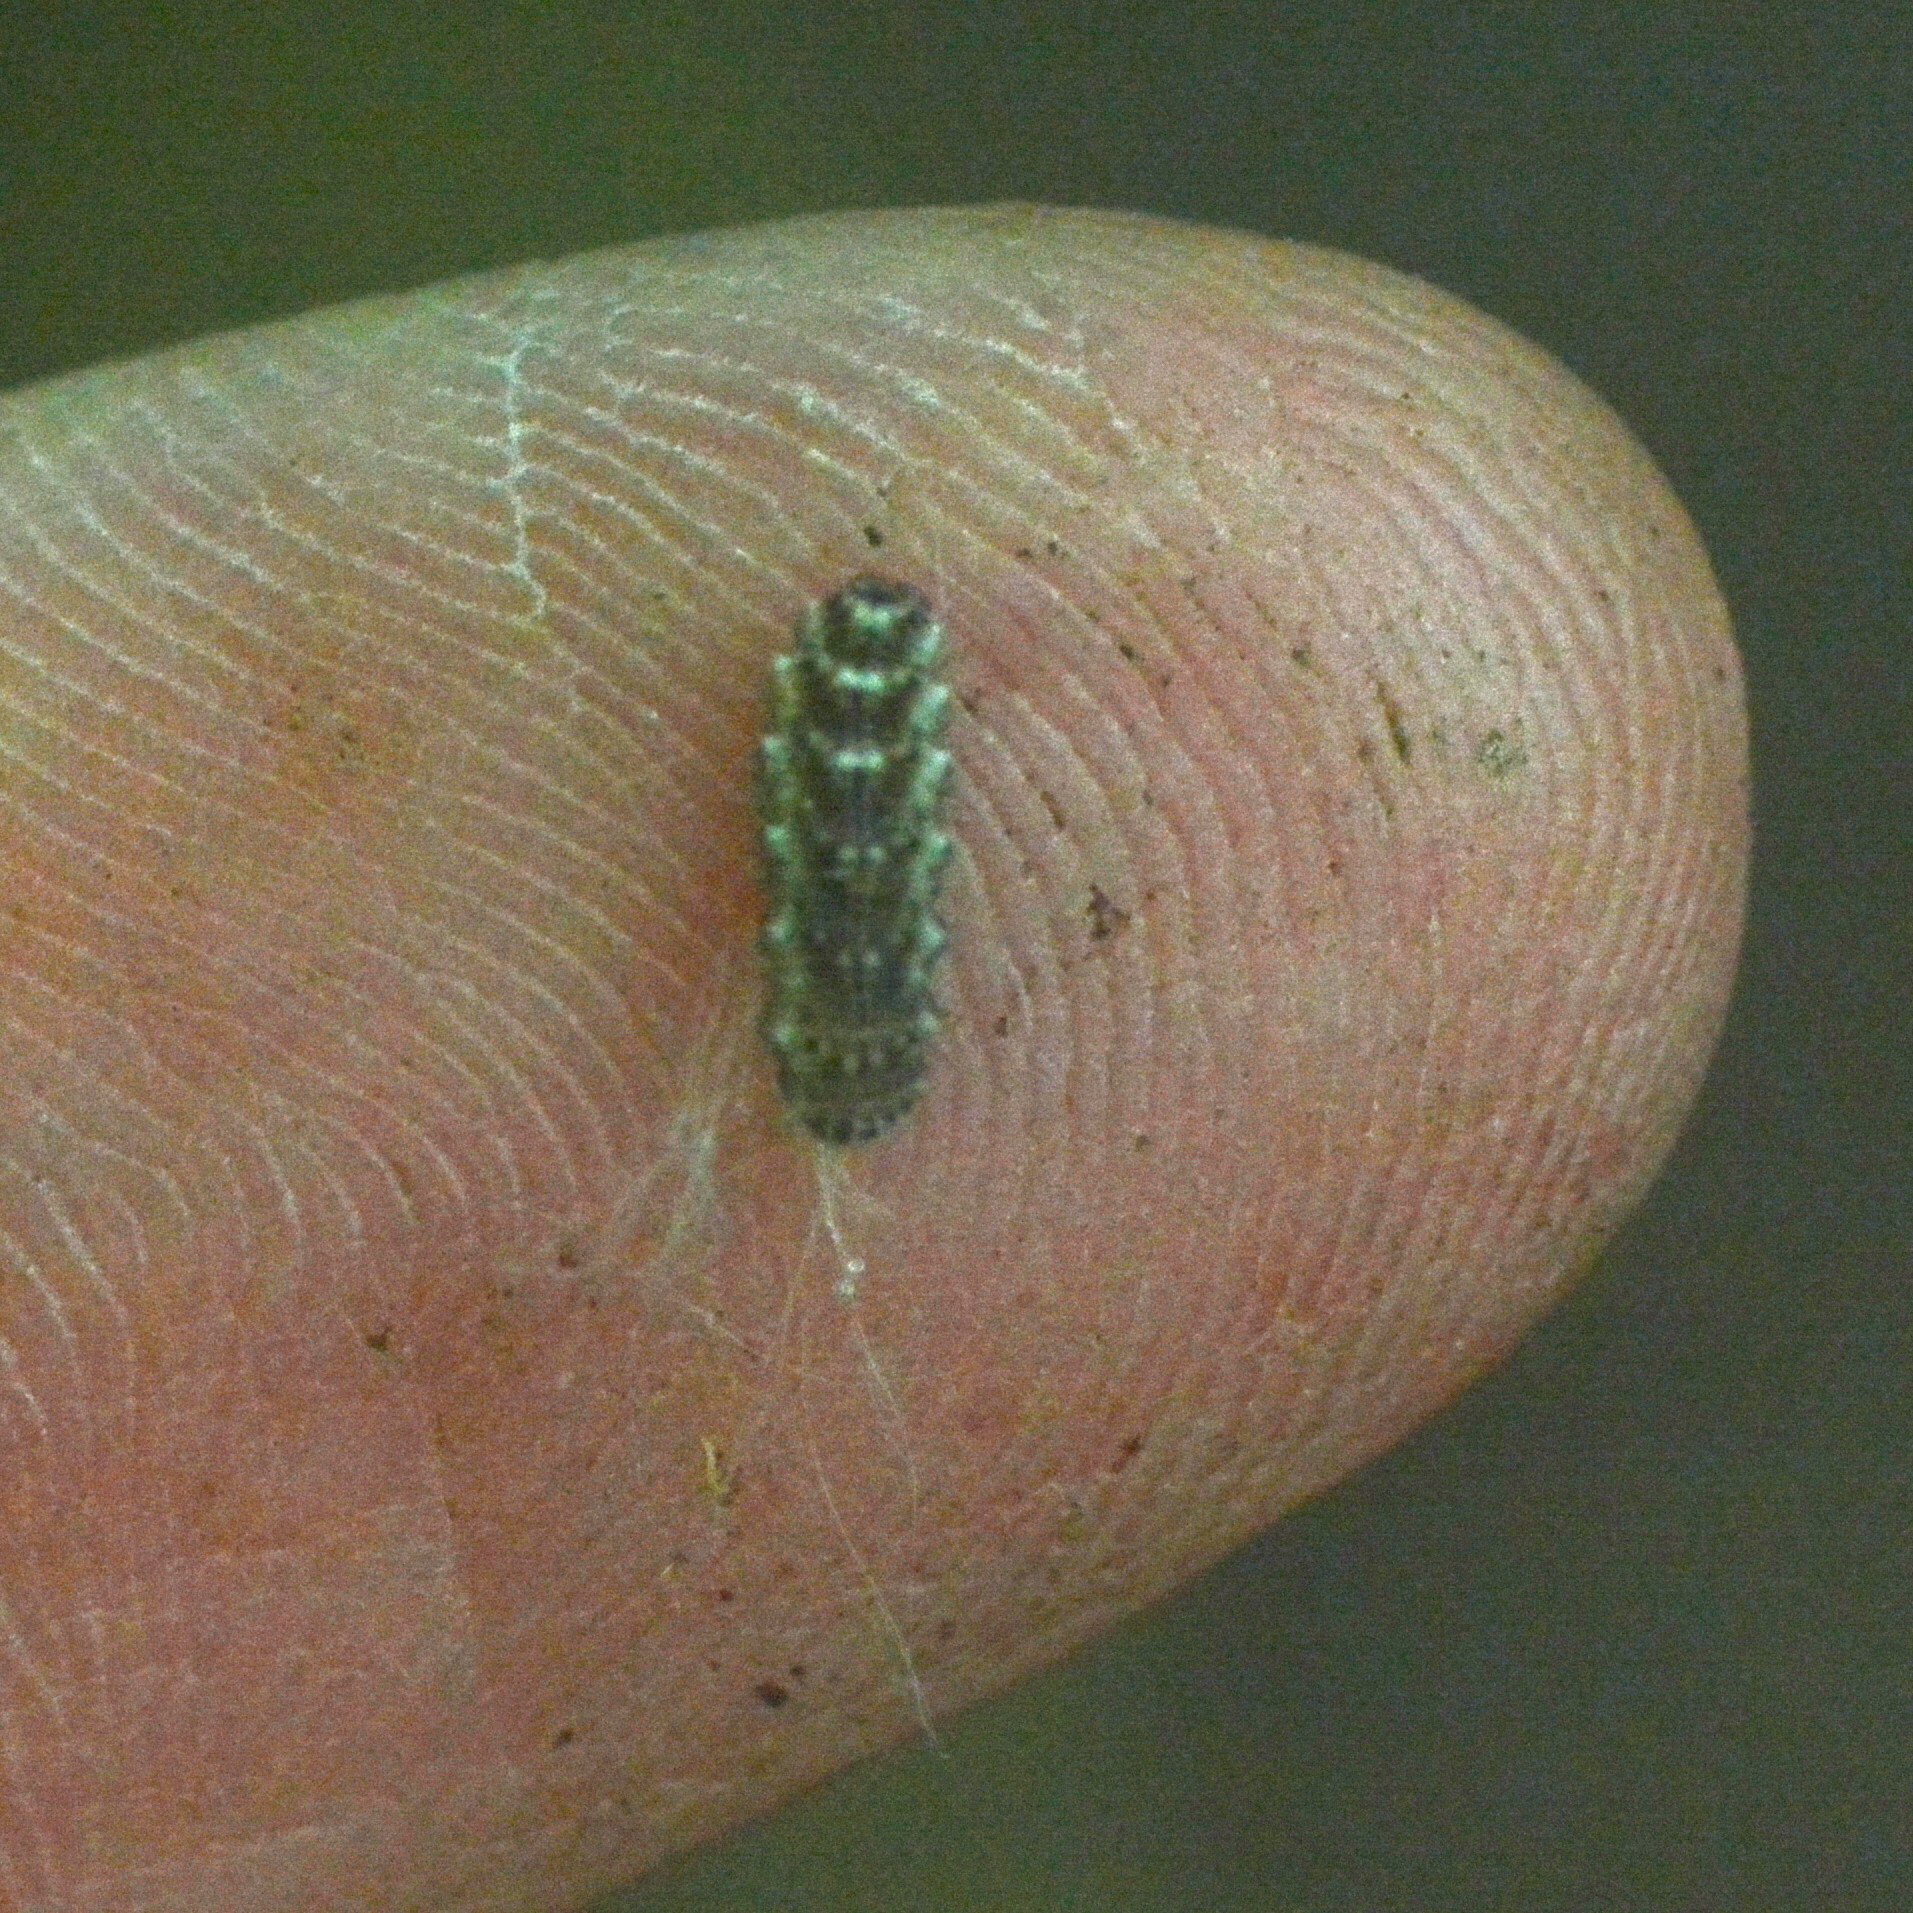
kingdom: Animalia
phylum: Arthropoda
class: Insecta
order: Diptera
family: Syrphidae
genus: Eupeodes
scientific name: Eupeodes
